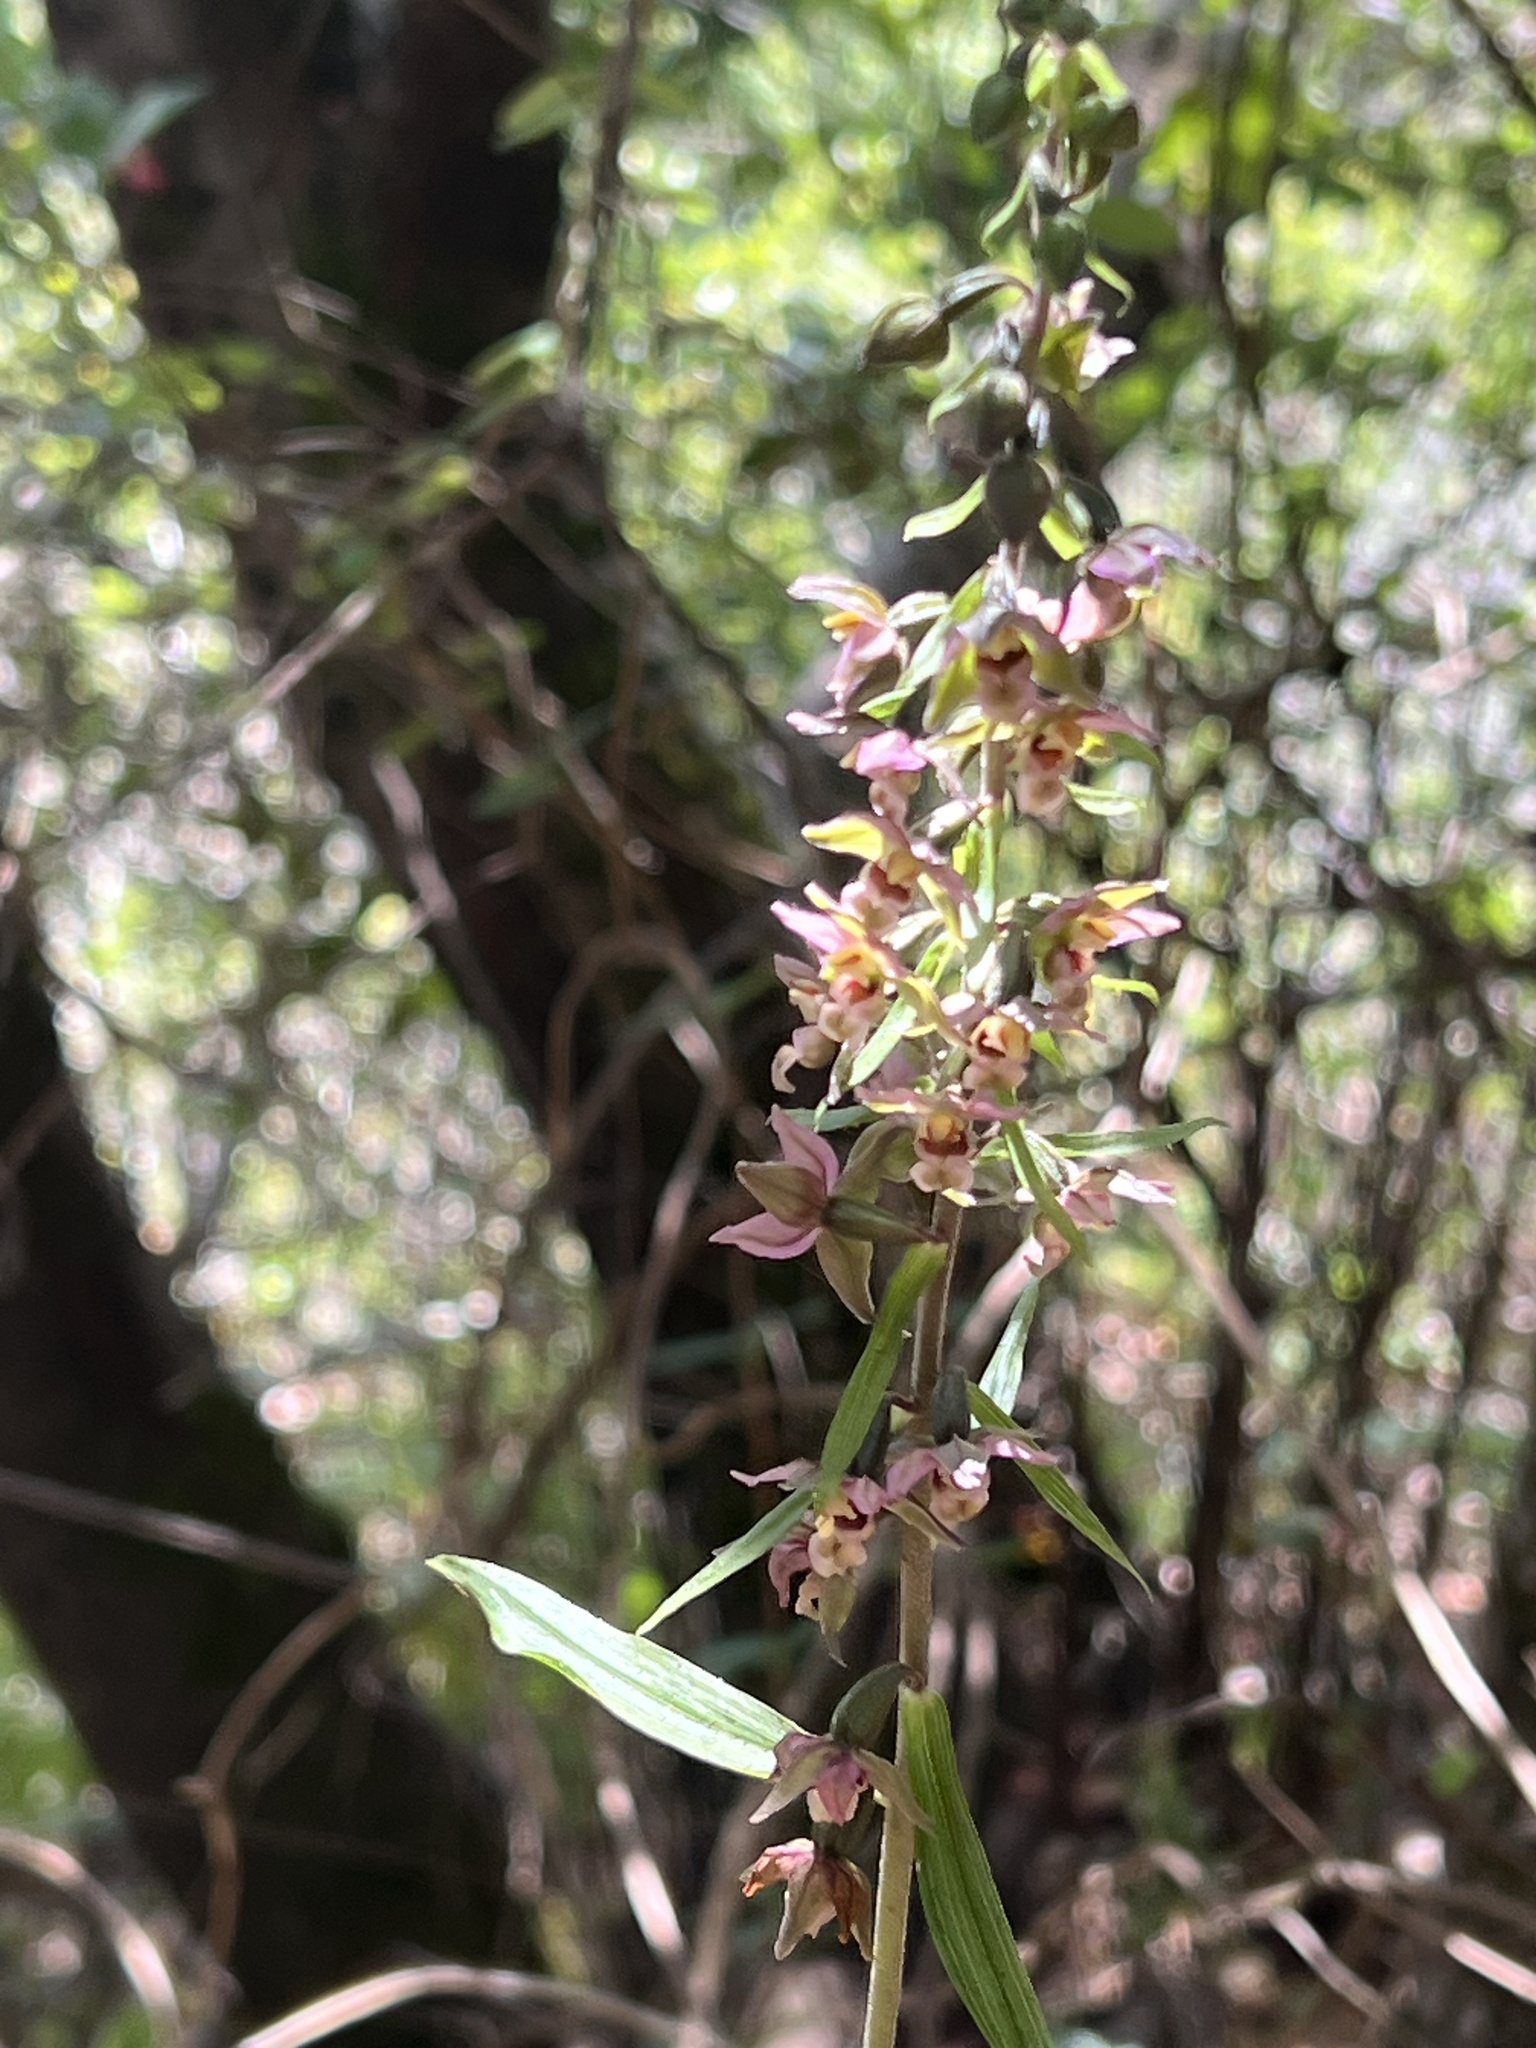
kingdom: Plantae
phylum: Tracheophyta
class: Liliopsida
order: Asparagales
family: Orchidaceae
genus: Epipactis
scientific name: Epipactis helleborine
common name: Broad-leaved helleborine
